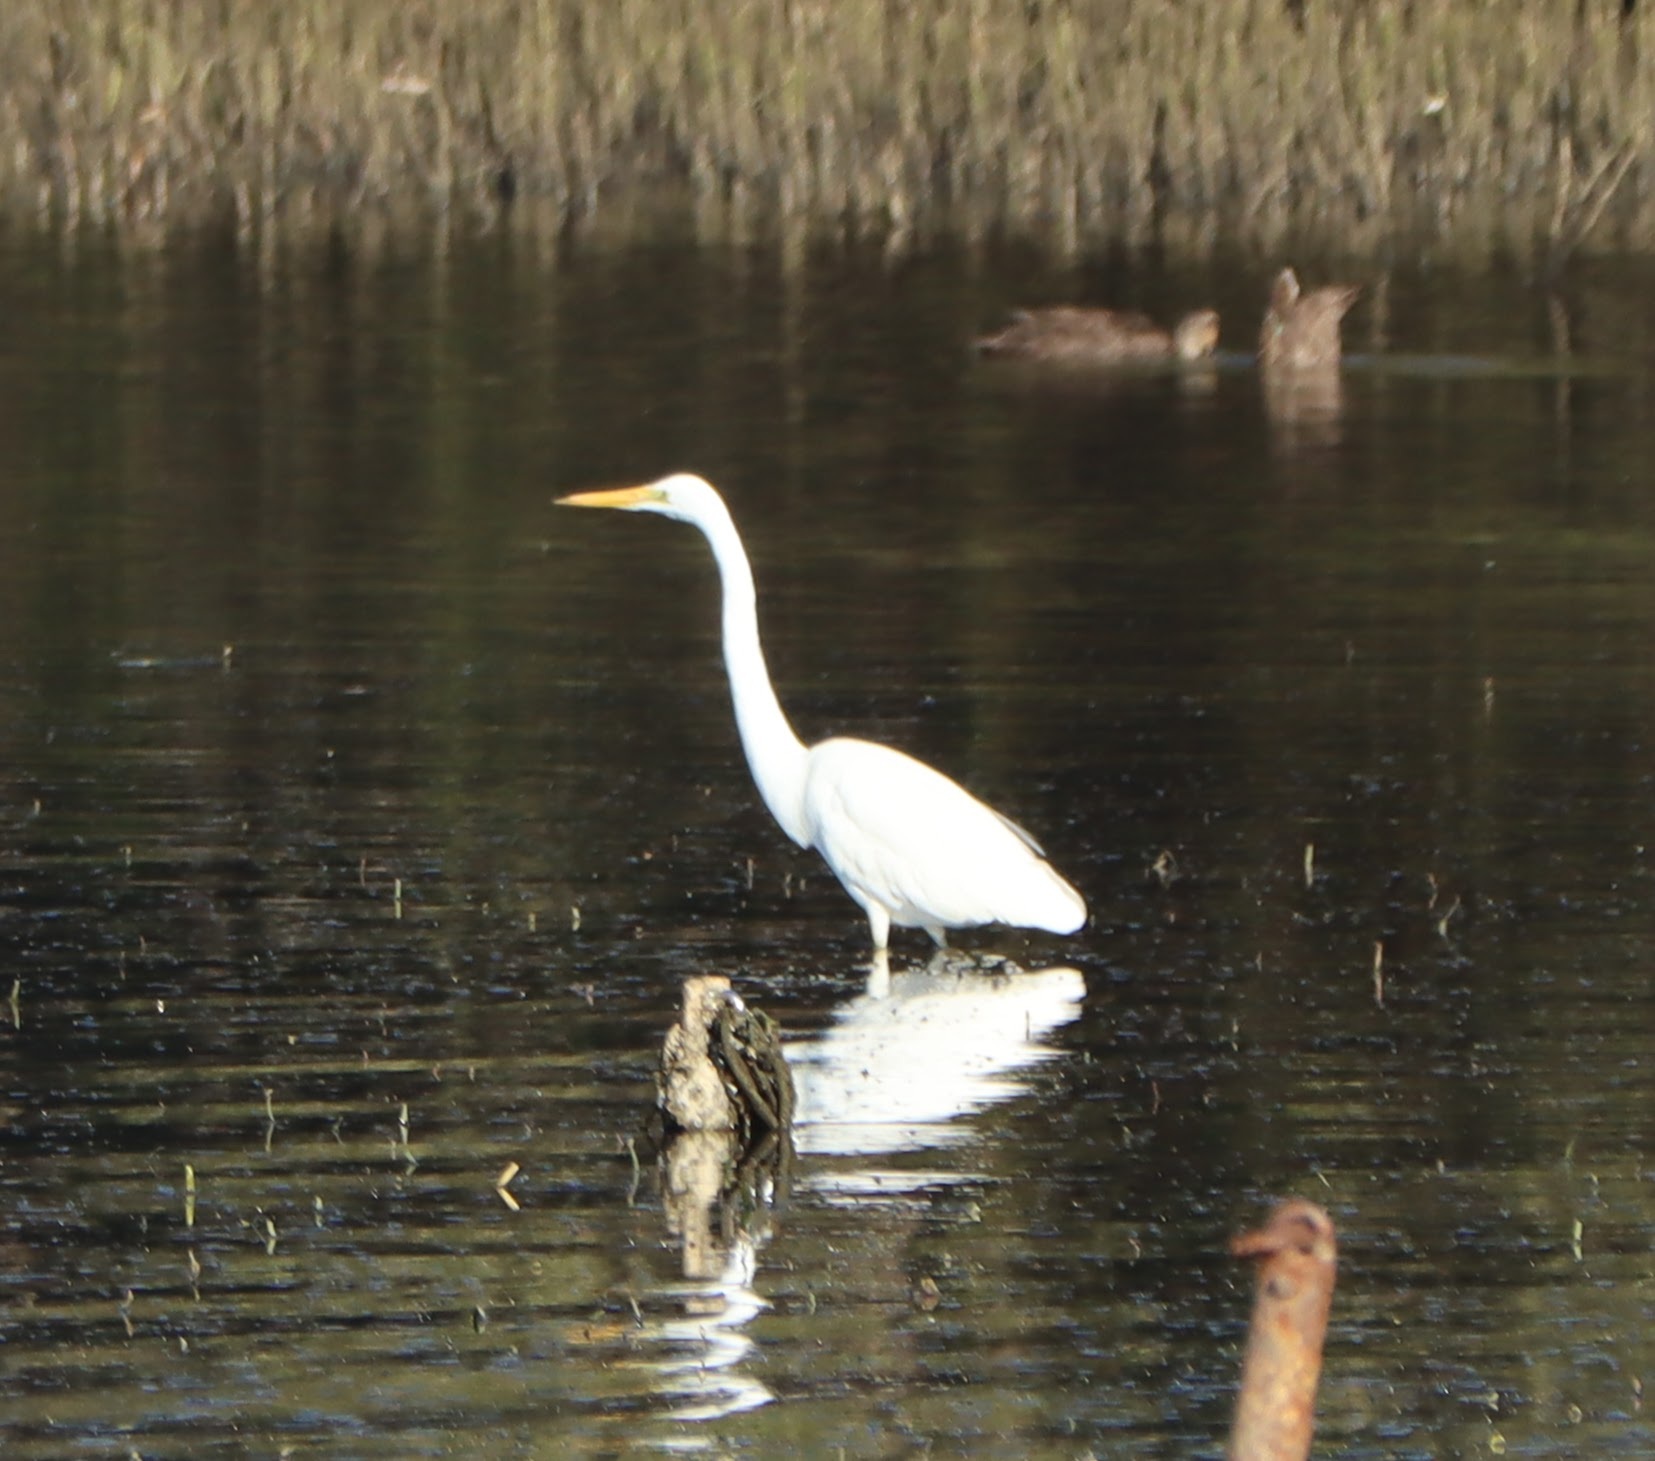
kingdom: Animalia
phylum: Chordata
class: Aves
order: Pelecaniformes
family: Ardeidae
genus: Ardea
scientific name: Ardea alba
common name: Great egret
